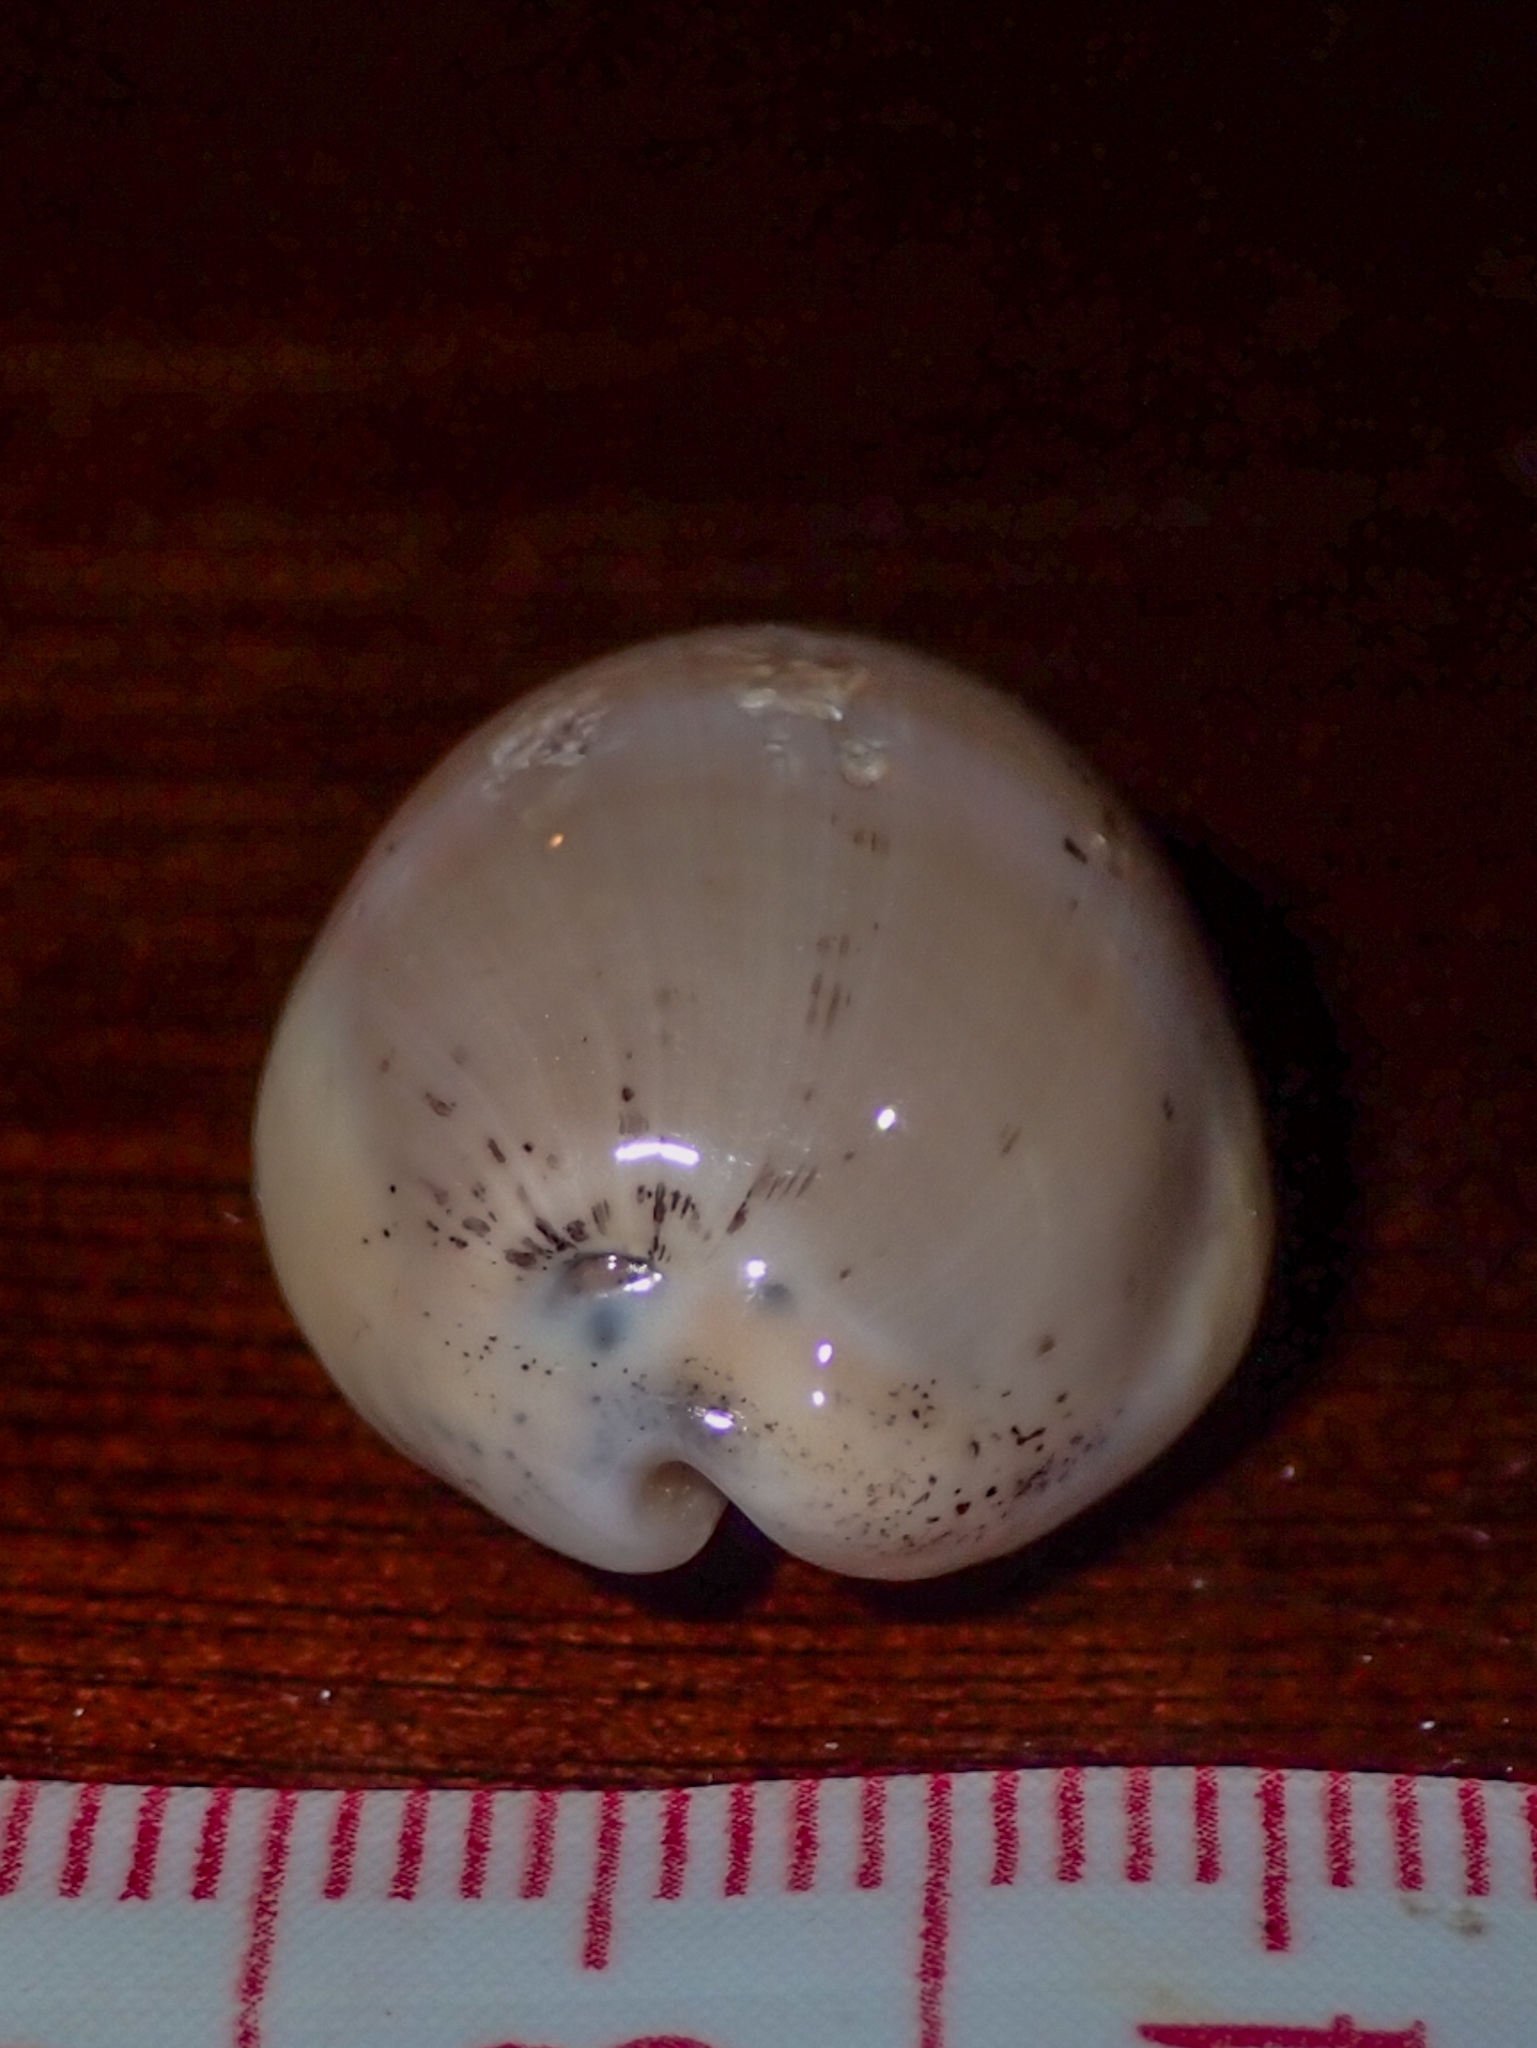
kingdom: Animalia
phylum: Mollusca
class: Gastropoda
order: Littorinimorpha
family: Cypraeidae
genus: Luria
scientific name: Luria cinerea
